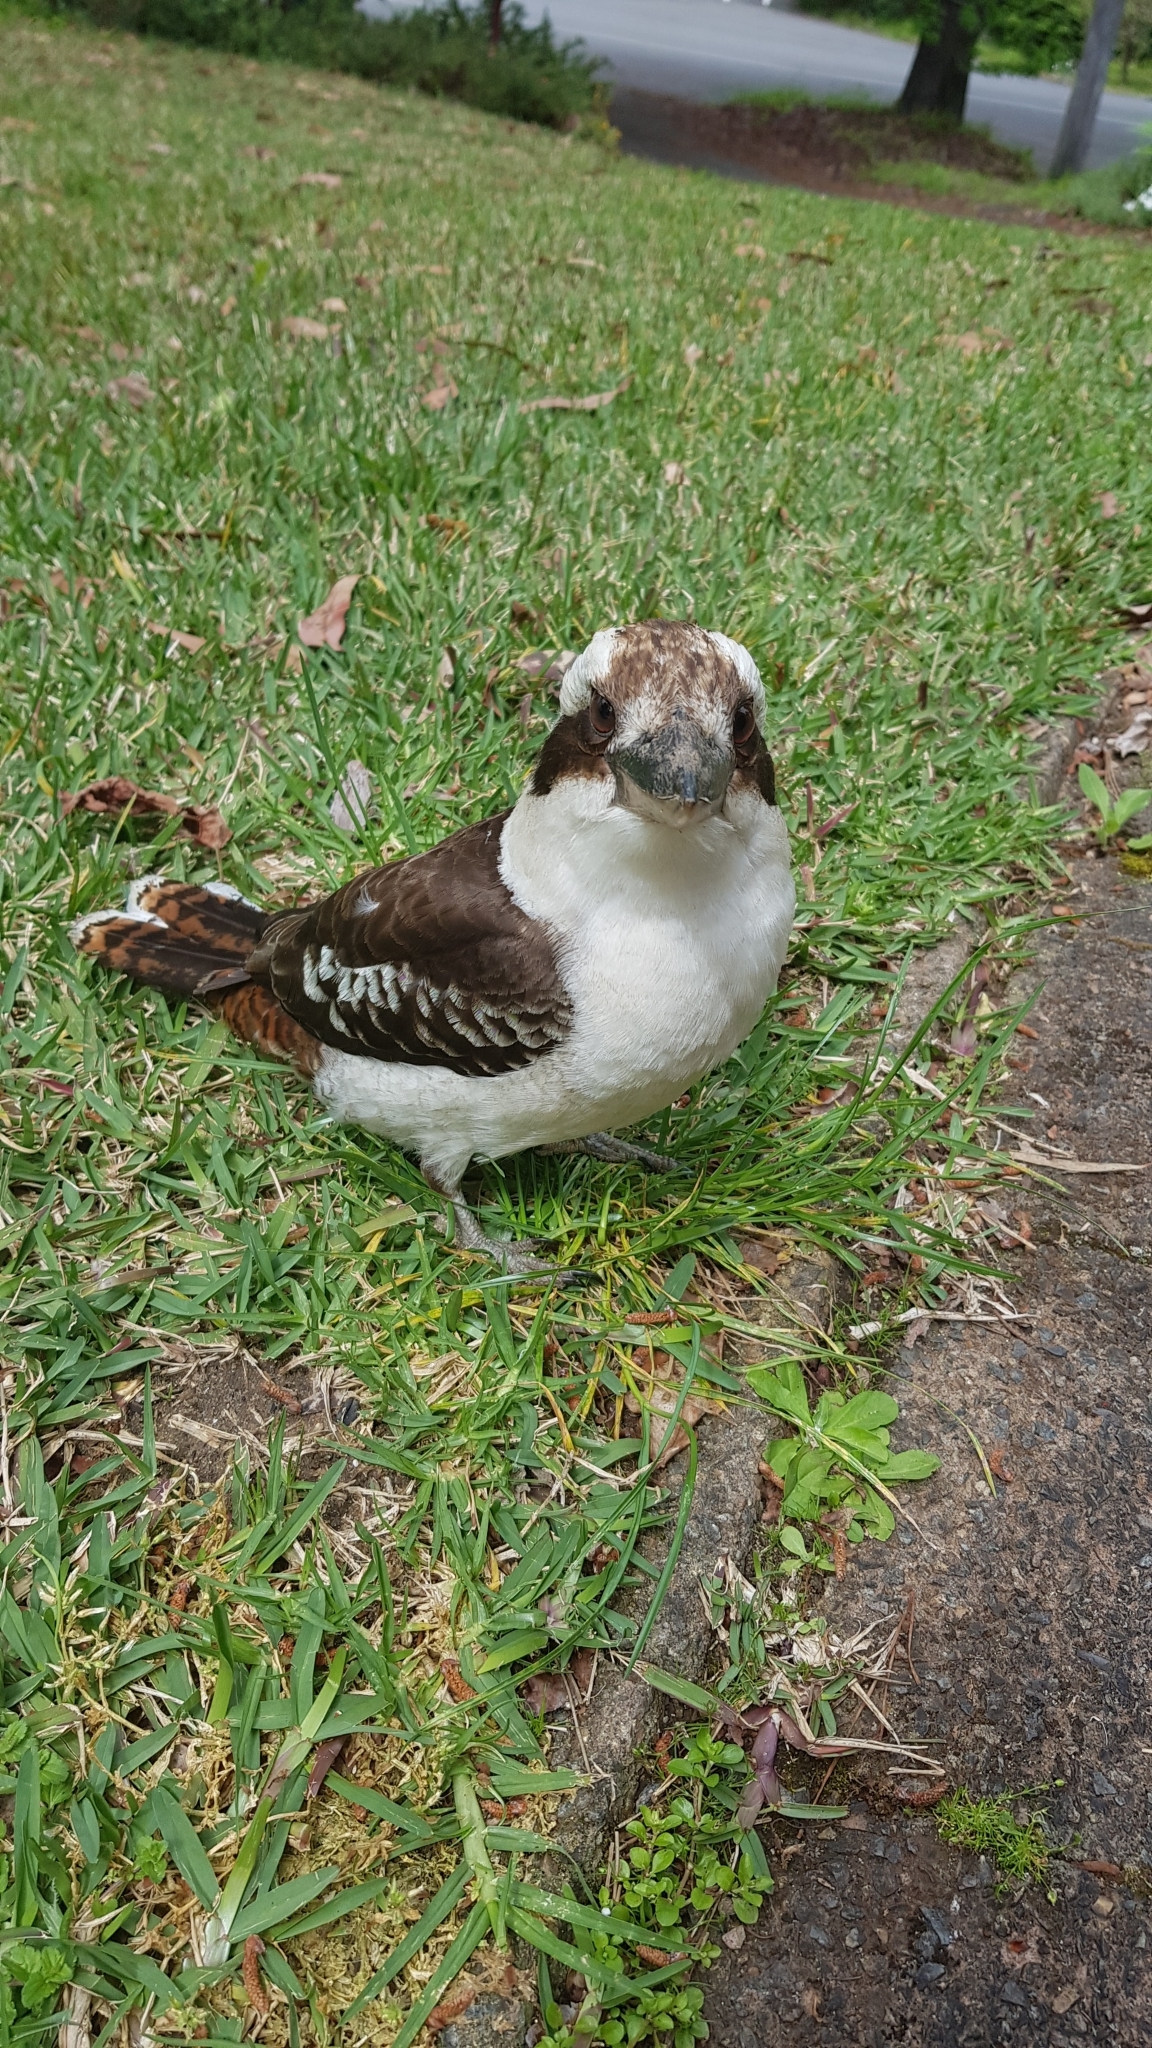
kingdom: Animalia
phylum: Chordata
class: Aves
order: Coraciiformes
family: Alcedinidae
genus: Dacelo
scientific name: Dacelo novaeguineae
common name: Laughing kookaburra
